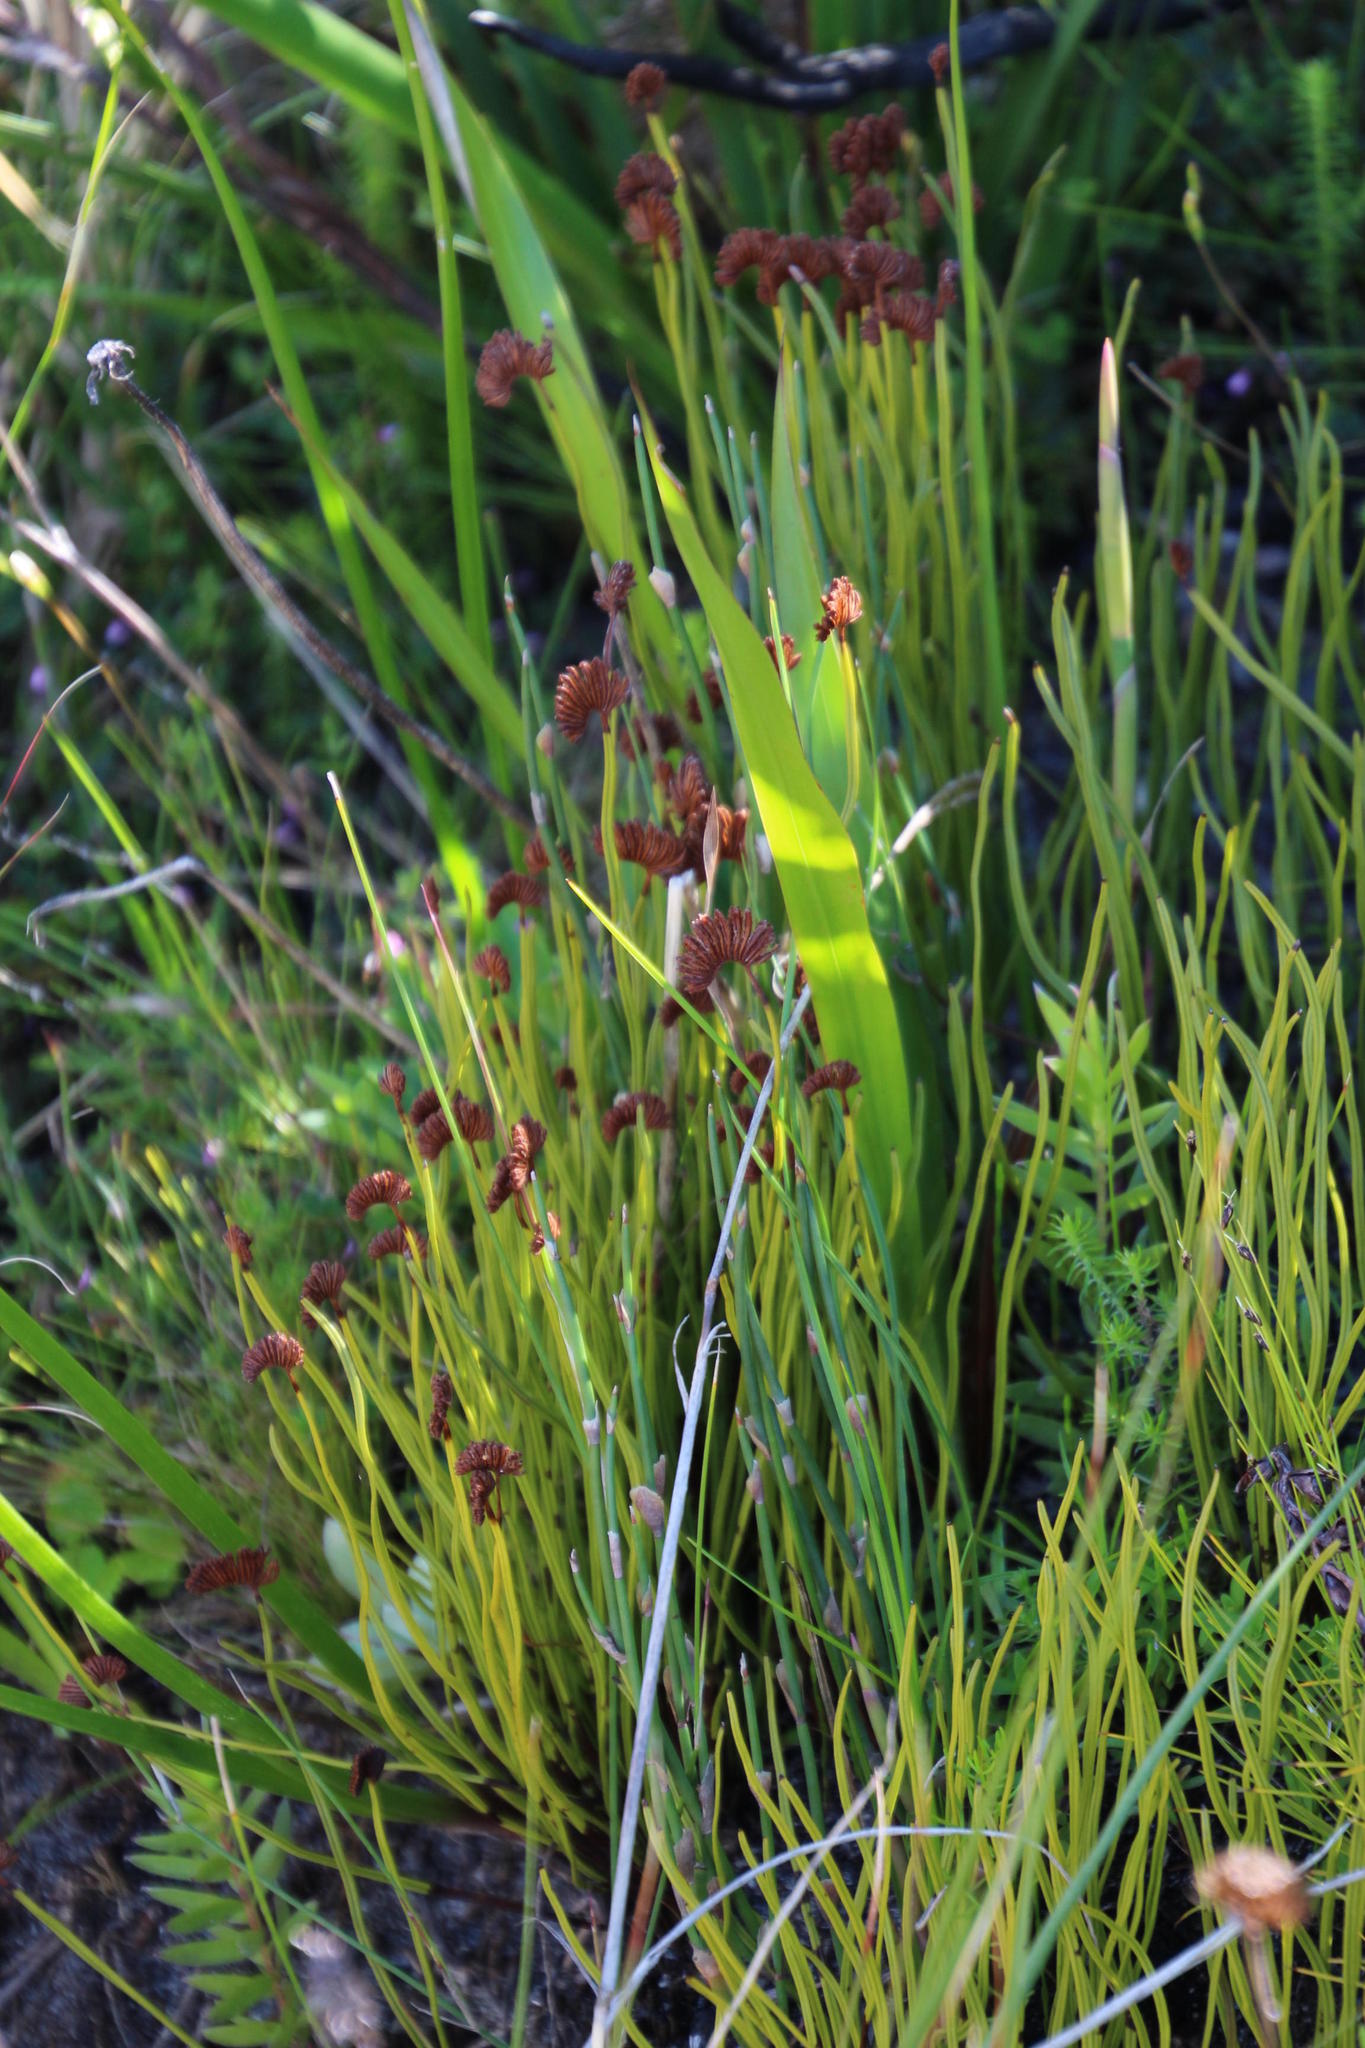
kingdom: Plantae
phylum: Tracheophyta
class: Polypodiopsida
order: Schizaeales
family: Schizaeaceae
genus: Schizaea
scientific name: Schizaea pectinata
